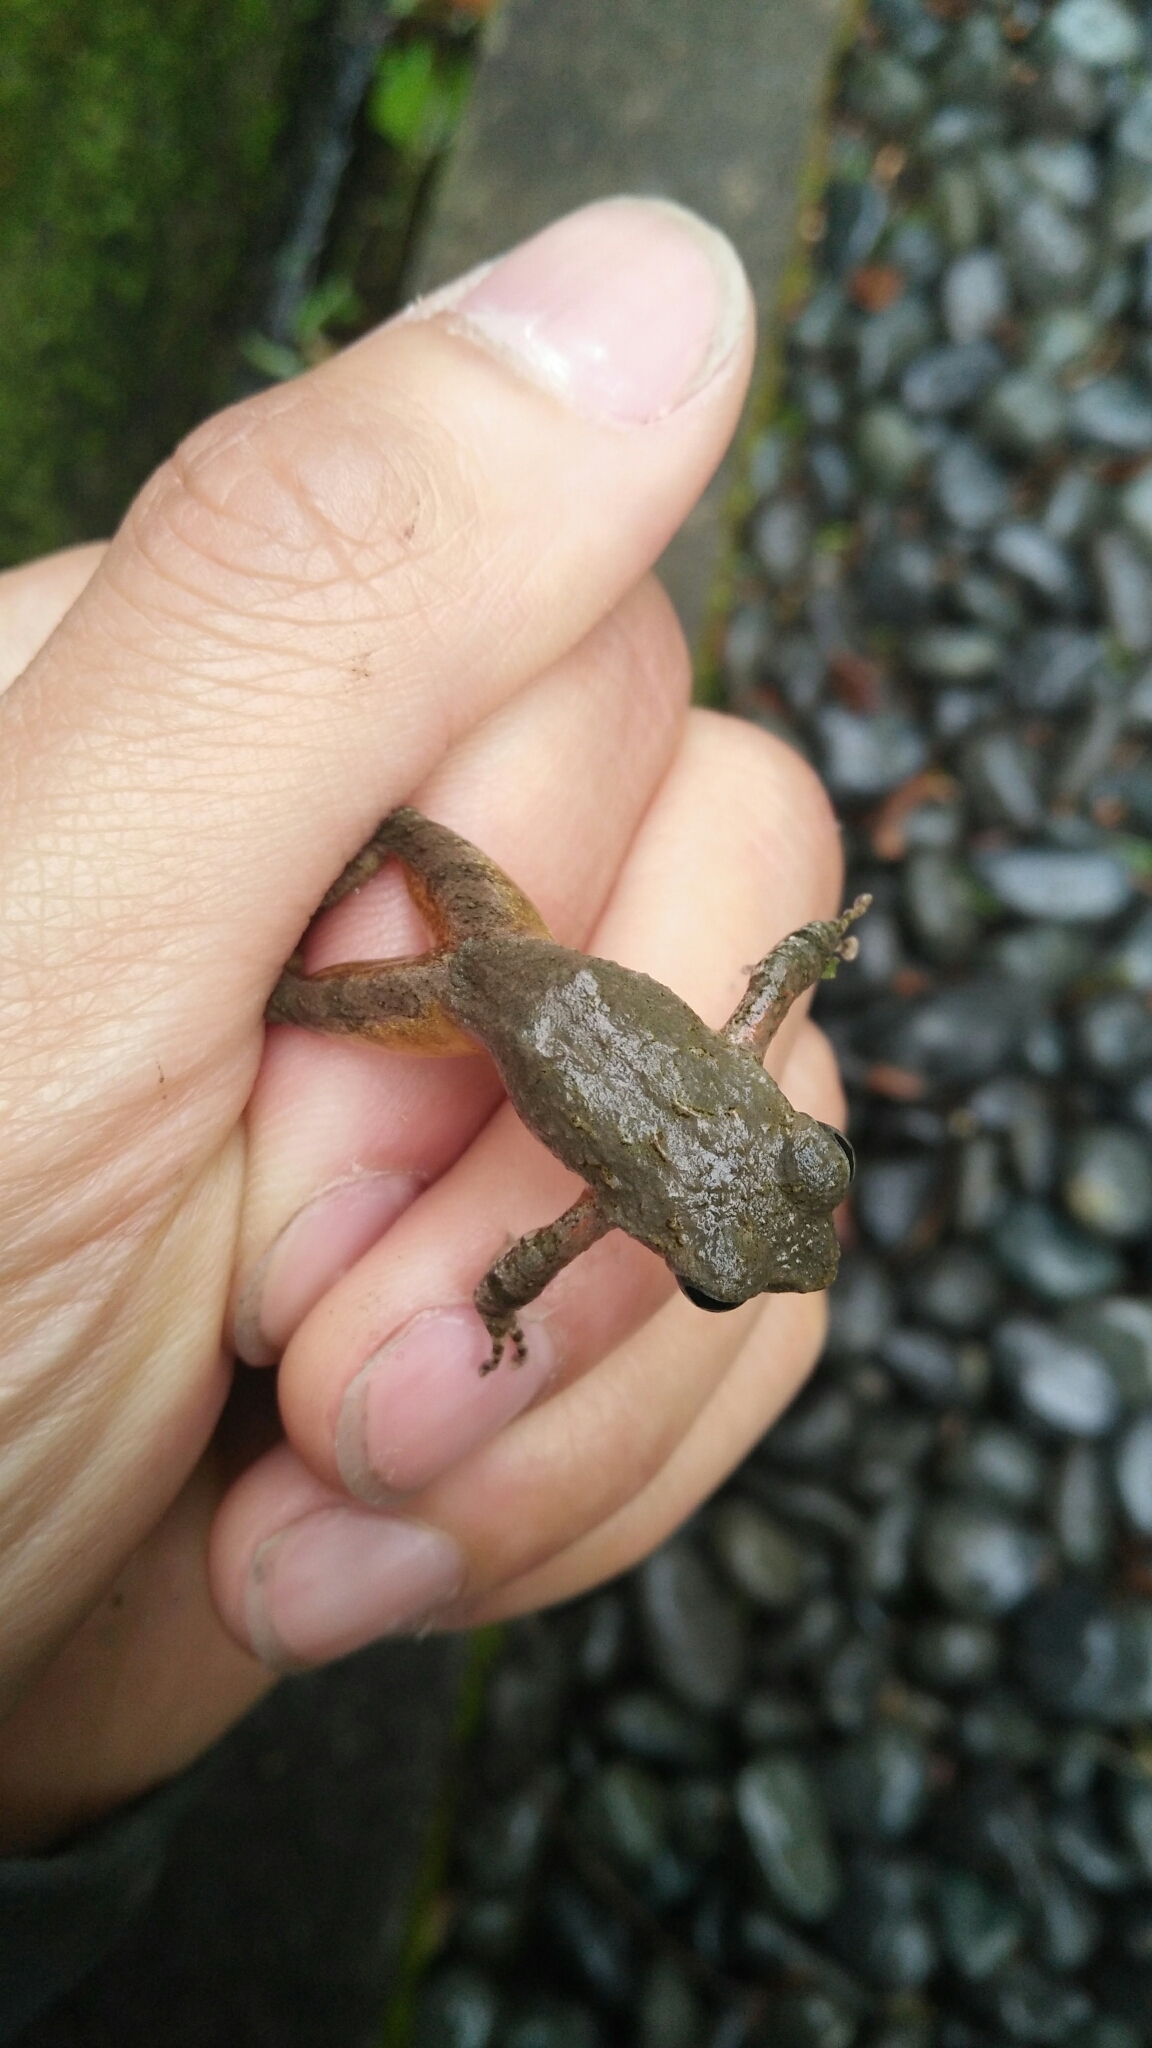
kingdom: Animalia
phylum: Chordata
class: Amphibia
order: Anura
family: Rhacophoridae
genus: Buergeria
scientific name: Buergeria otai
